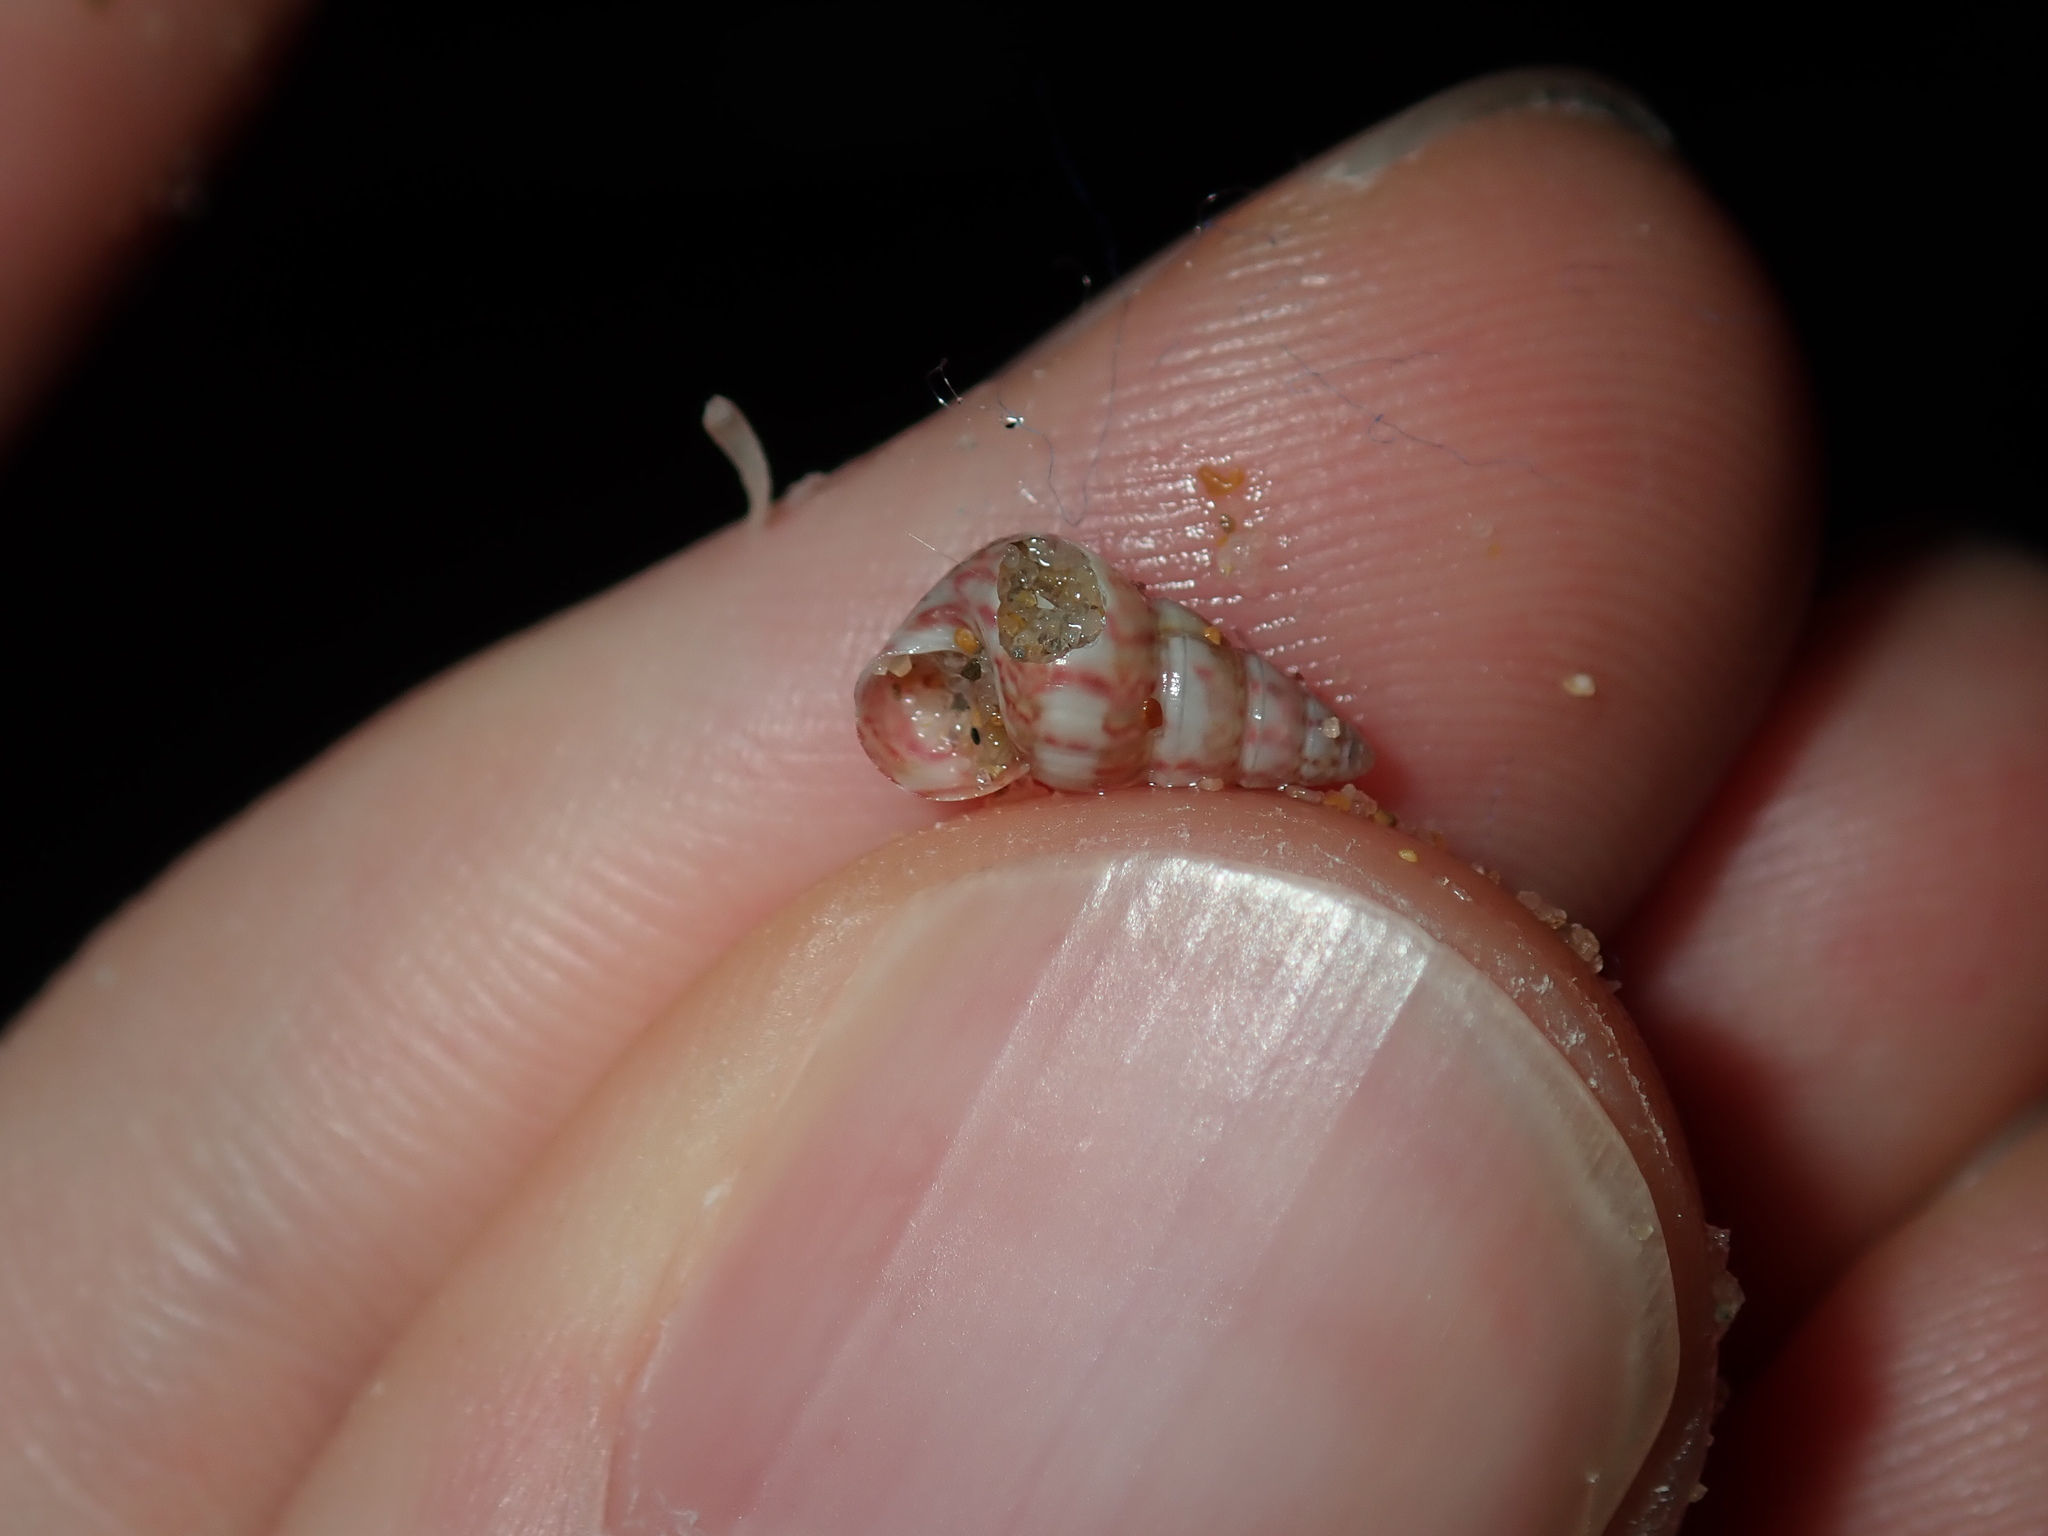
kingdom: Animalia
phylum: Mollusca
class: Gastropoda
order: Trochida
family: Trochidae
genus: Leiopyrga
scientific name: Leiopyrga lineolaris
